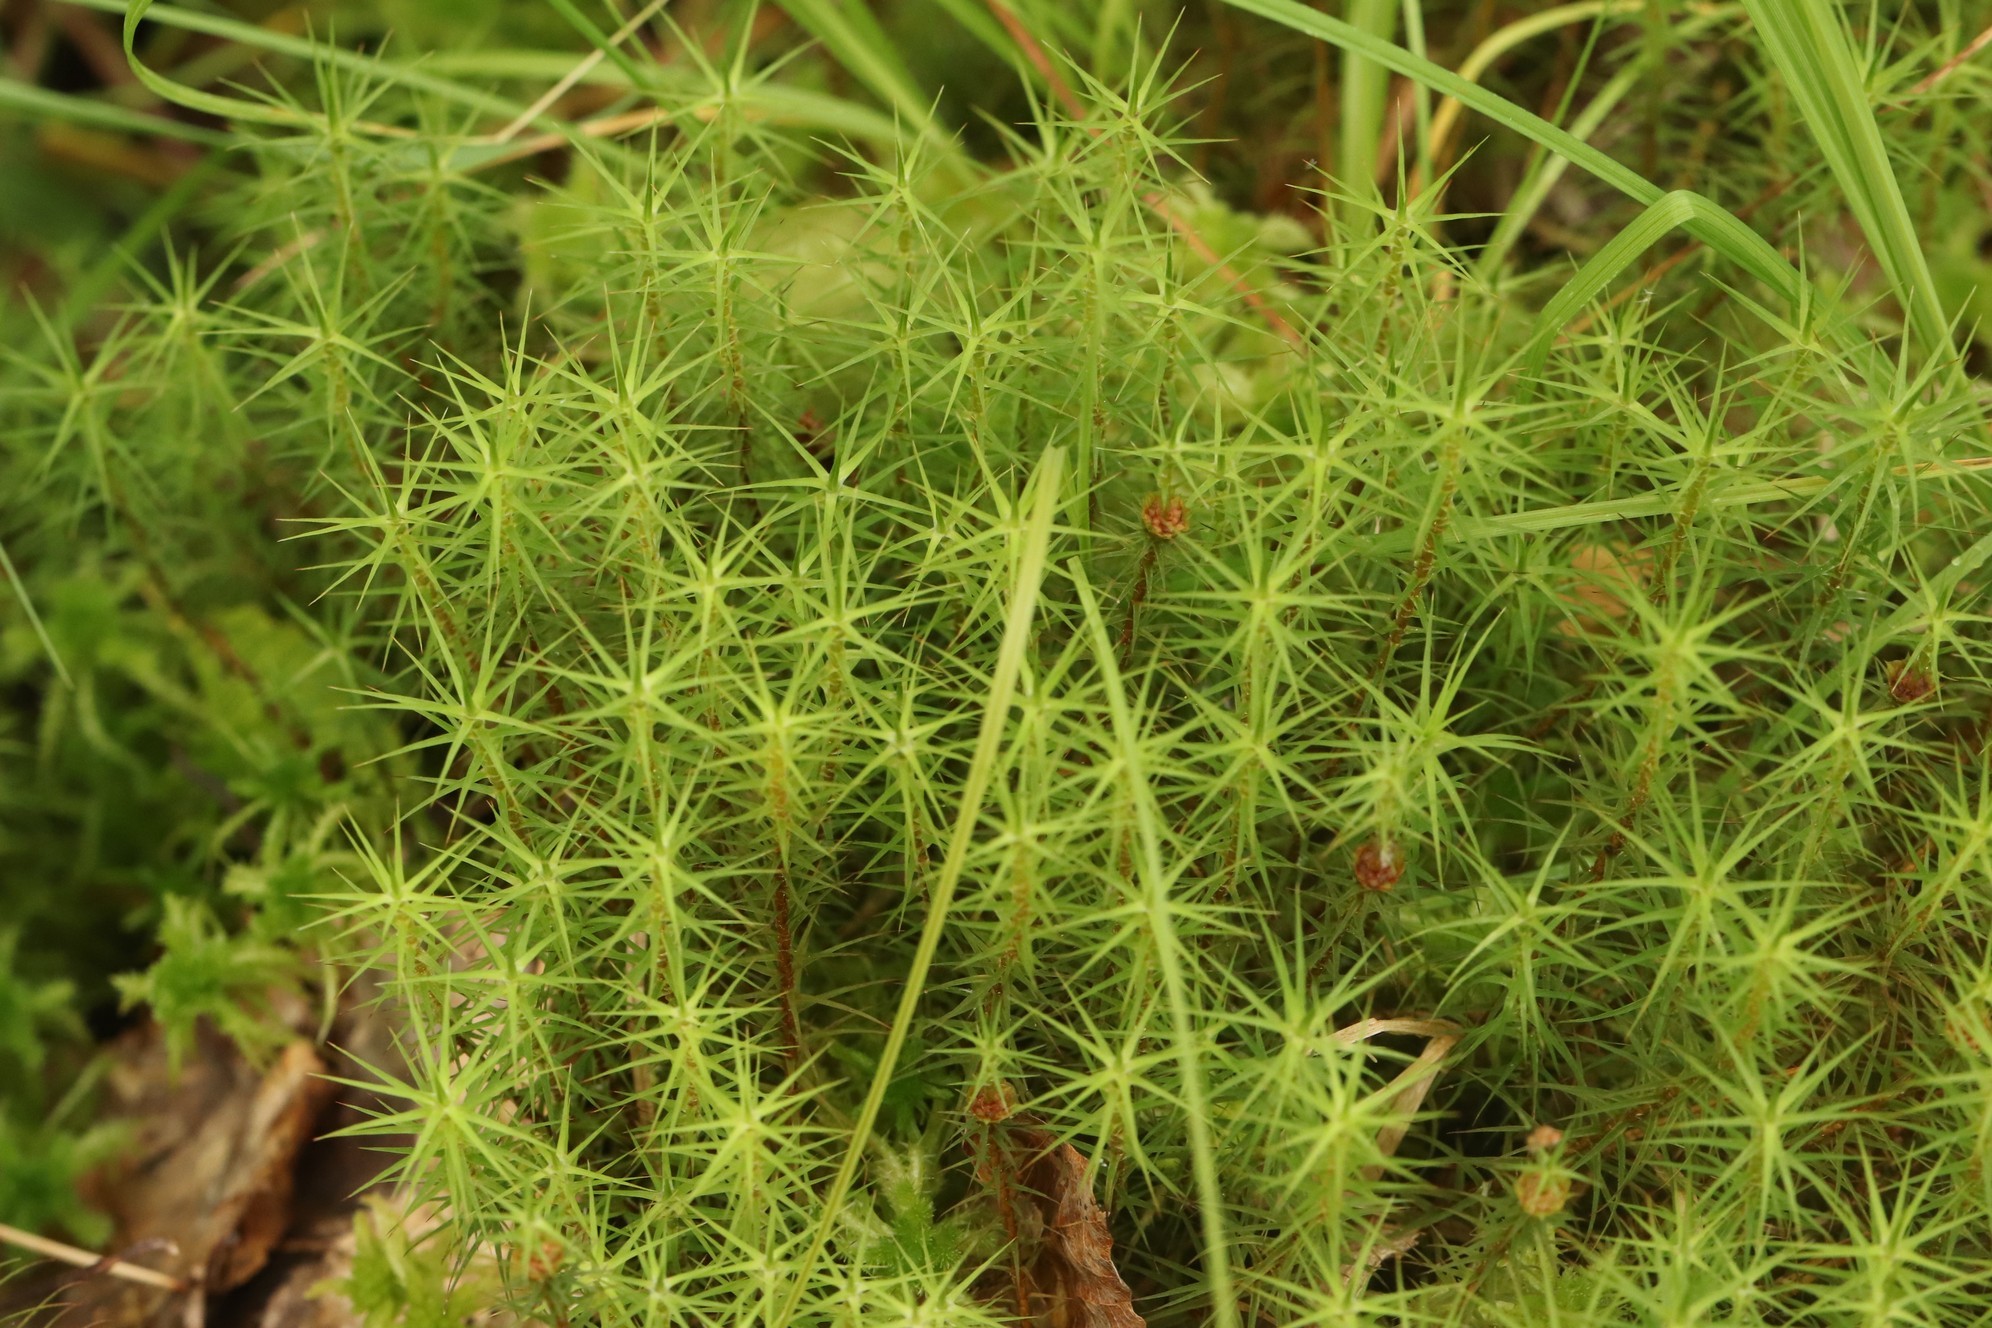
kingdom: Plantae
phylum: Bryophyta
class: Polytrichopsida
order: Polytrichales
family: Polytrichaceae
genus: Polytrichum
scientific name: Polytrichum commune
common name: Common haircap
